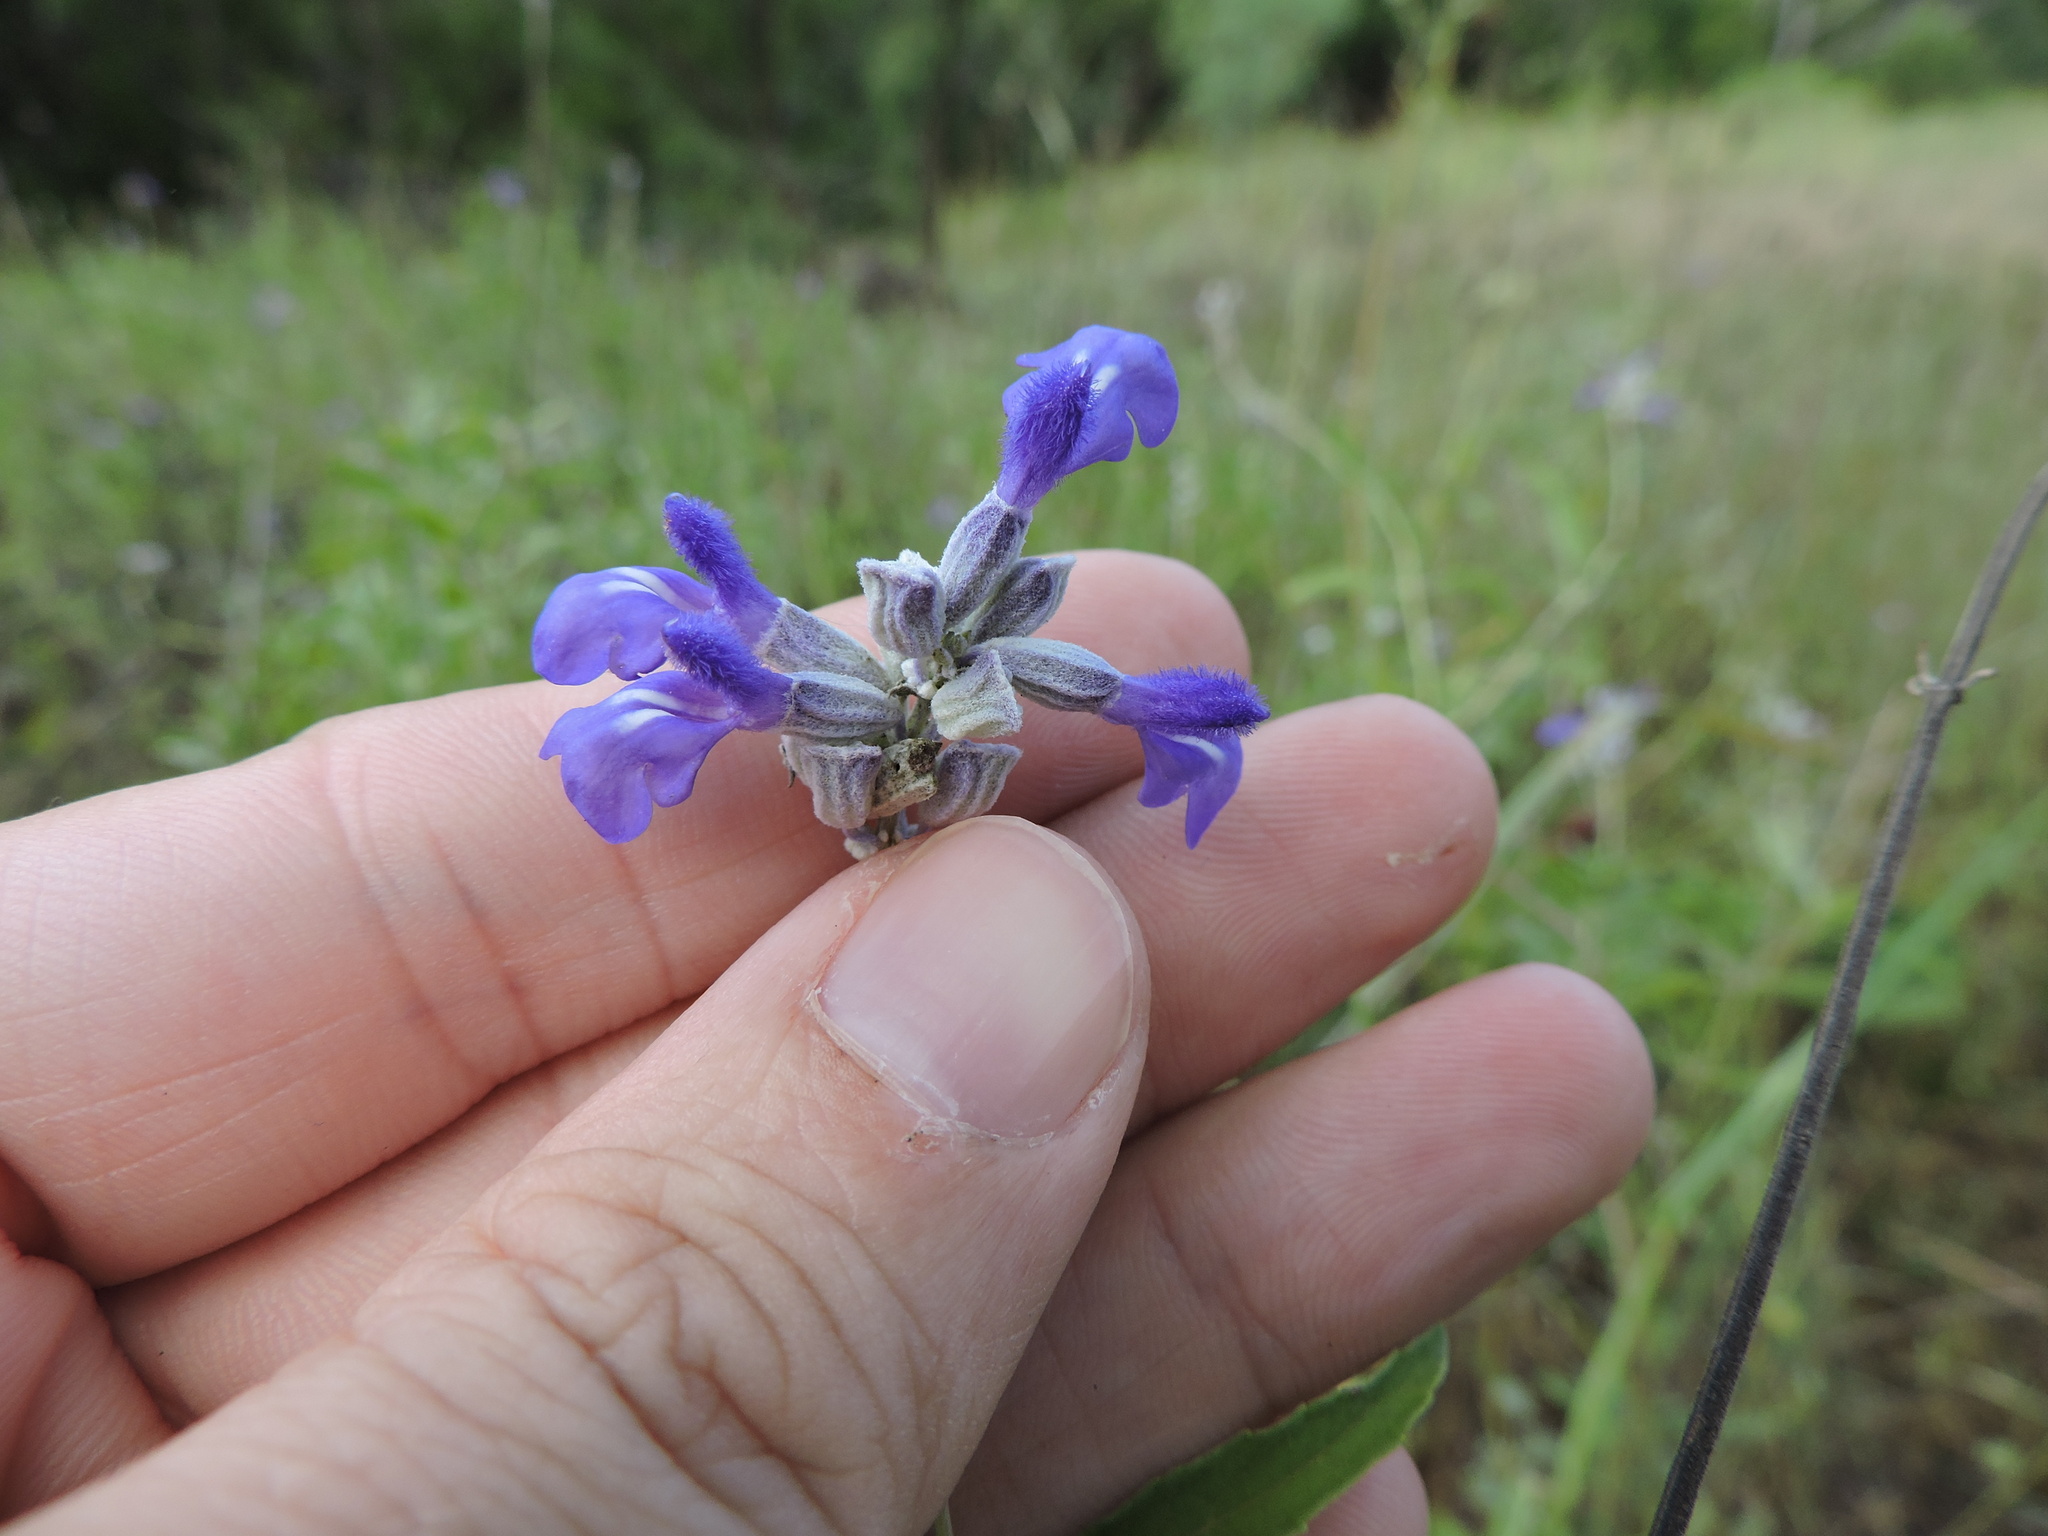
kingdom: Plantae
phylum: Tracheophyta
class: Magnoliopsida
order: Lamiales
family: Lamiaceae
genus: Salvia
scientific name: Salvia farinacea
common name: Mealy sage
